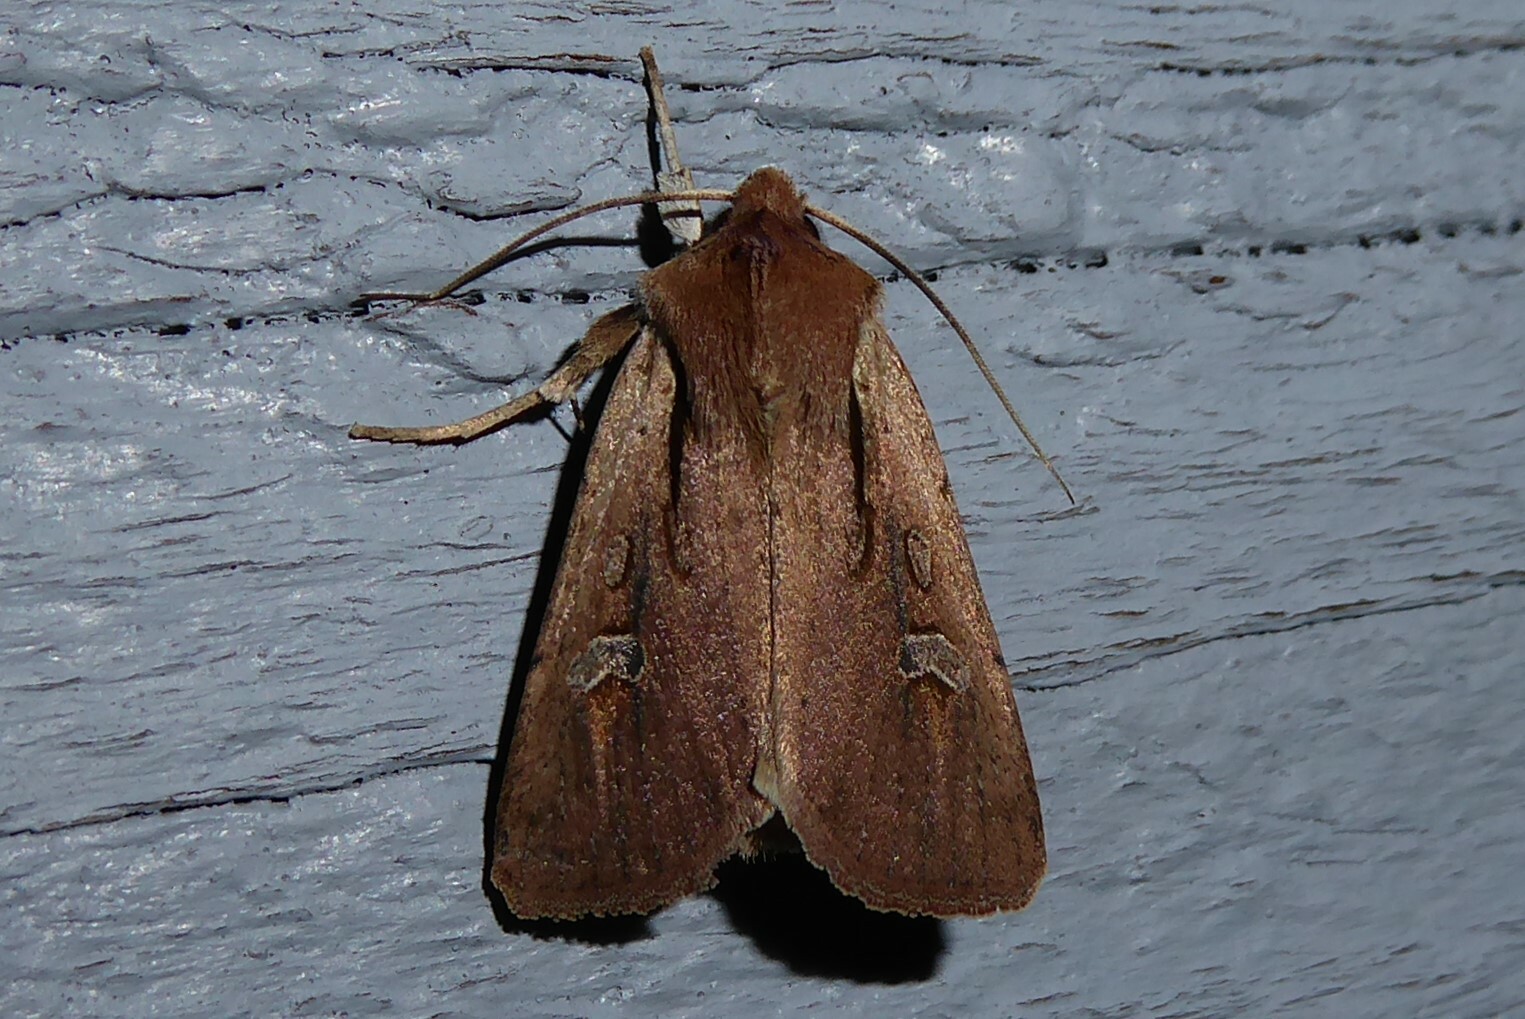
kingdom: Animalia
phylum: Arthropoda
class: Insecta
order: Lepidoptera
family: Noctuidae
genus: Ichneutica
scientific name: Ichneutica atristriga
